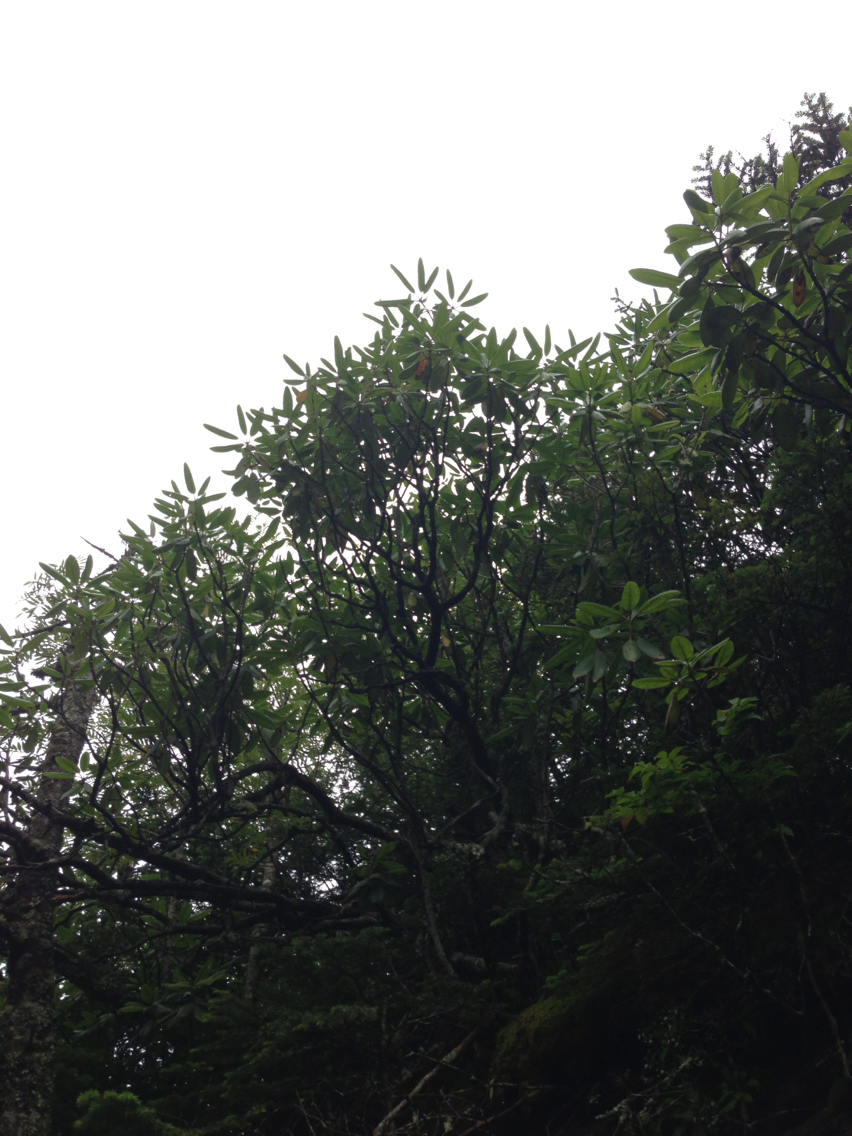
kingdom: Plantae
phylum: Tracheophyta
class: Magnoliopsida
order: Ericales
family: Ericaceae
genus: Rhododendron
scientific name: Rhododendron catawbiense
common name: Catawba rhododendron
